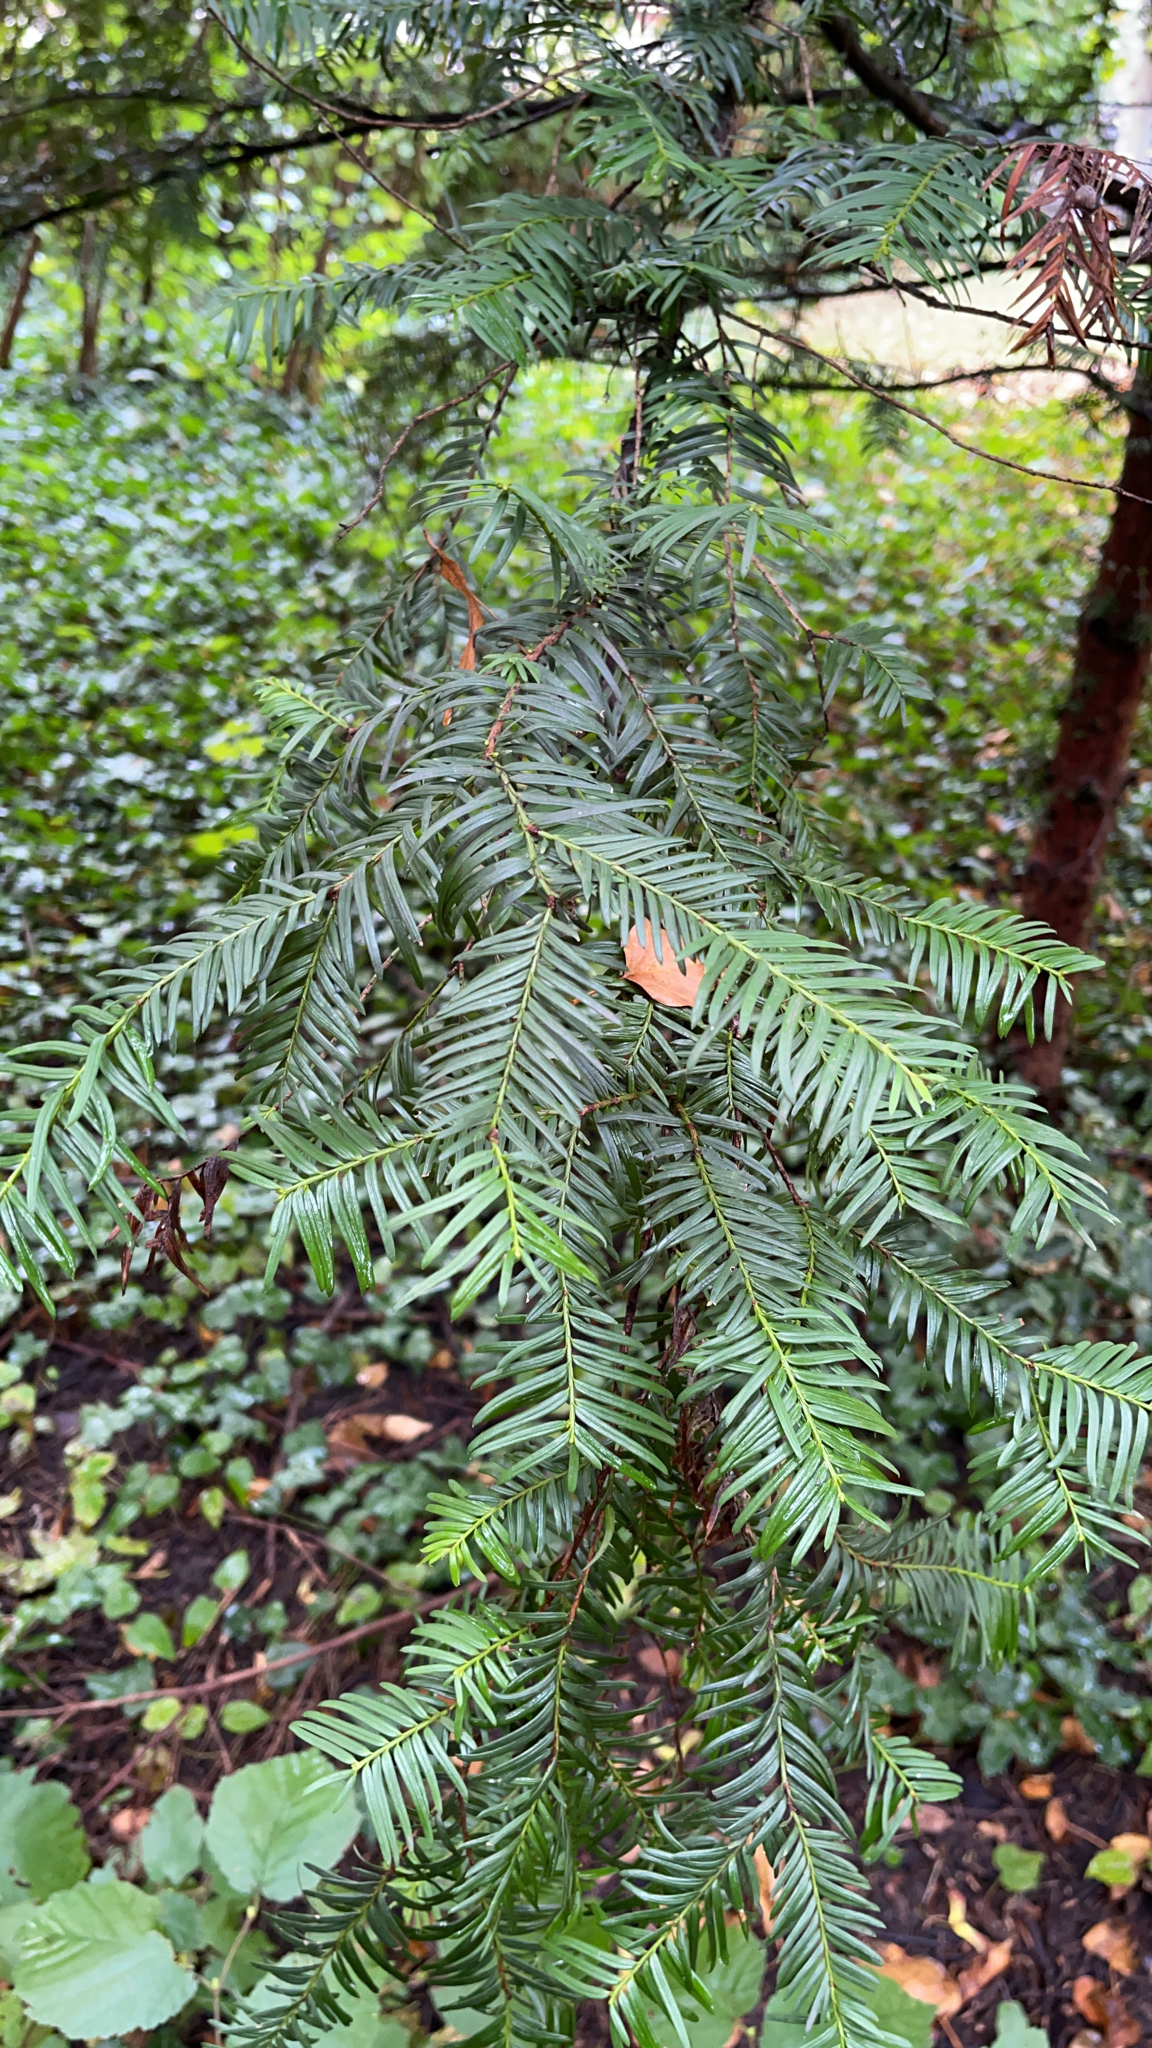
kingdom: Plantae
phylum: Tracheophyta
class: Pinopsida
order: Pinales
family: Taxaceae
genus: Taxus
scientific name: Taxus baccata
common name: Yew
